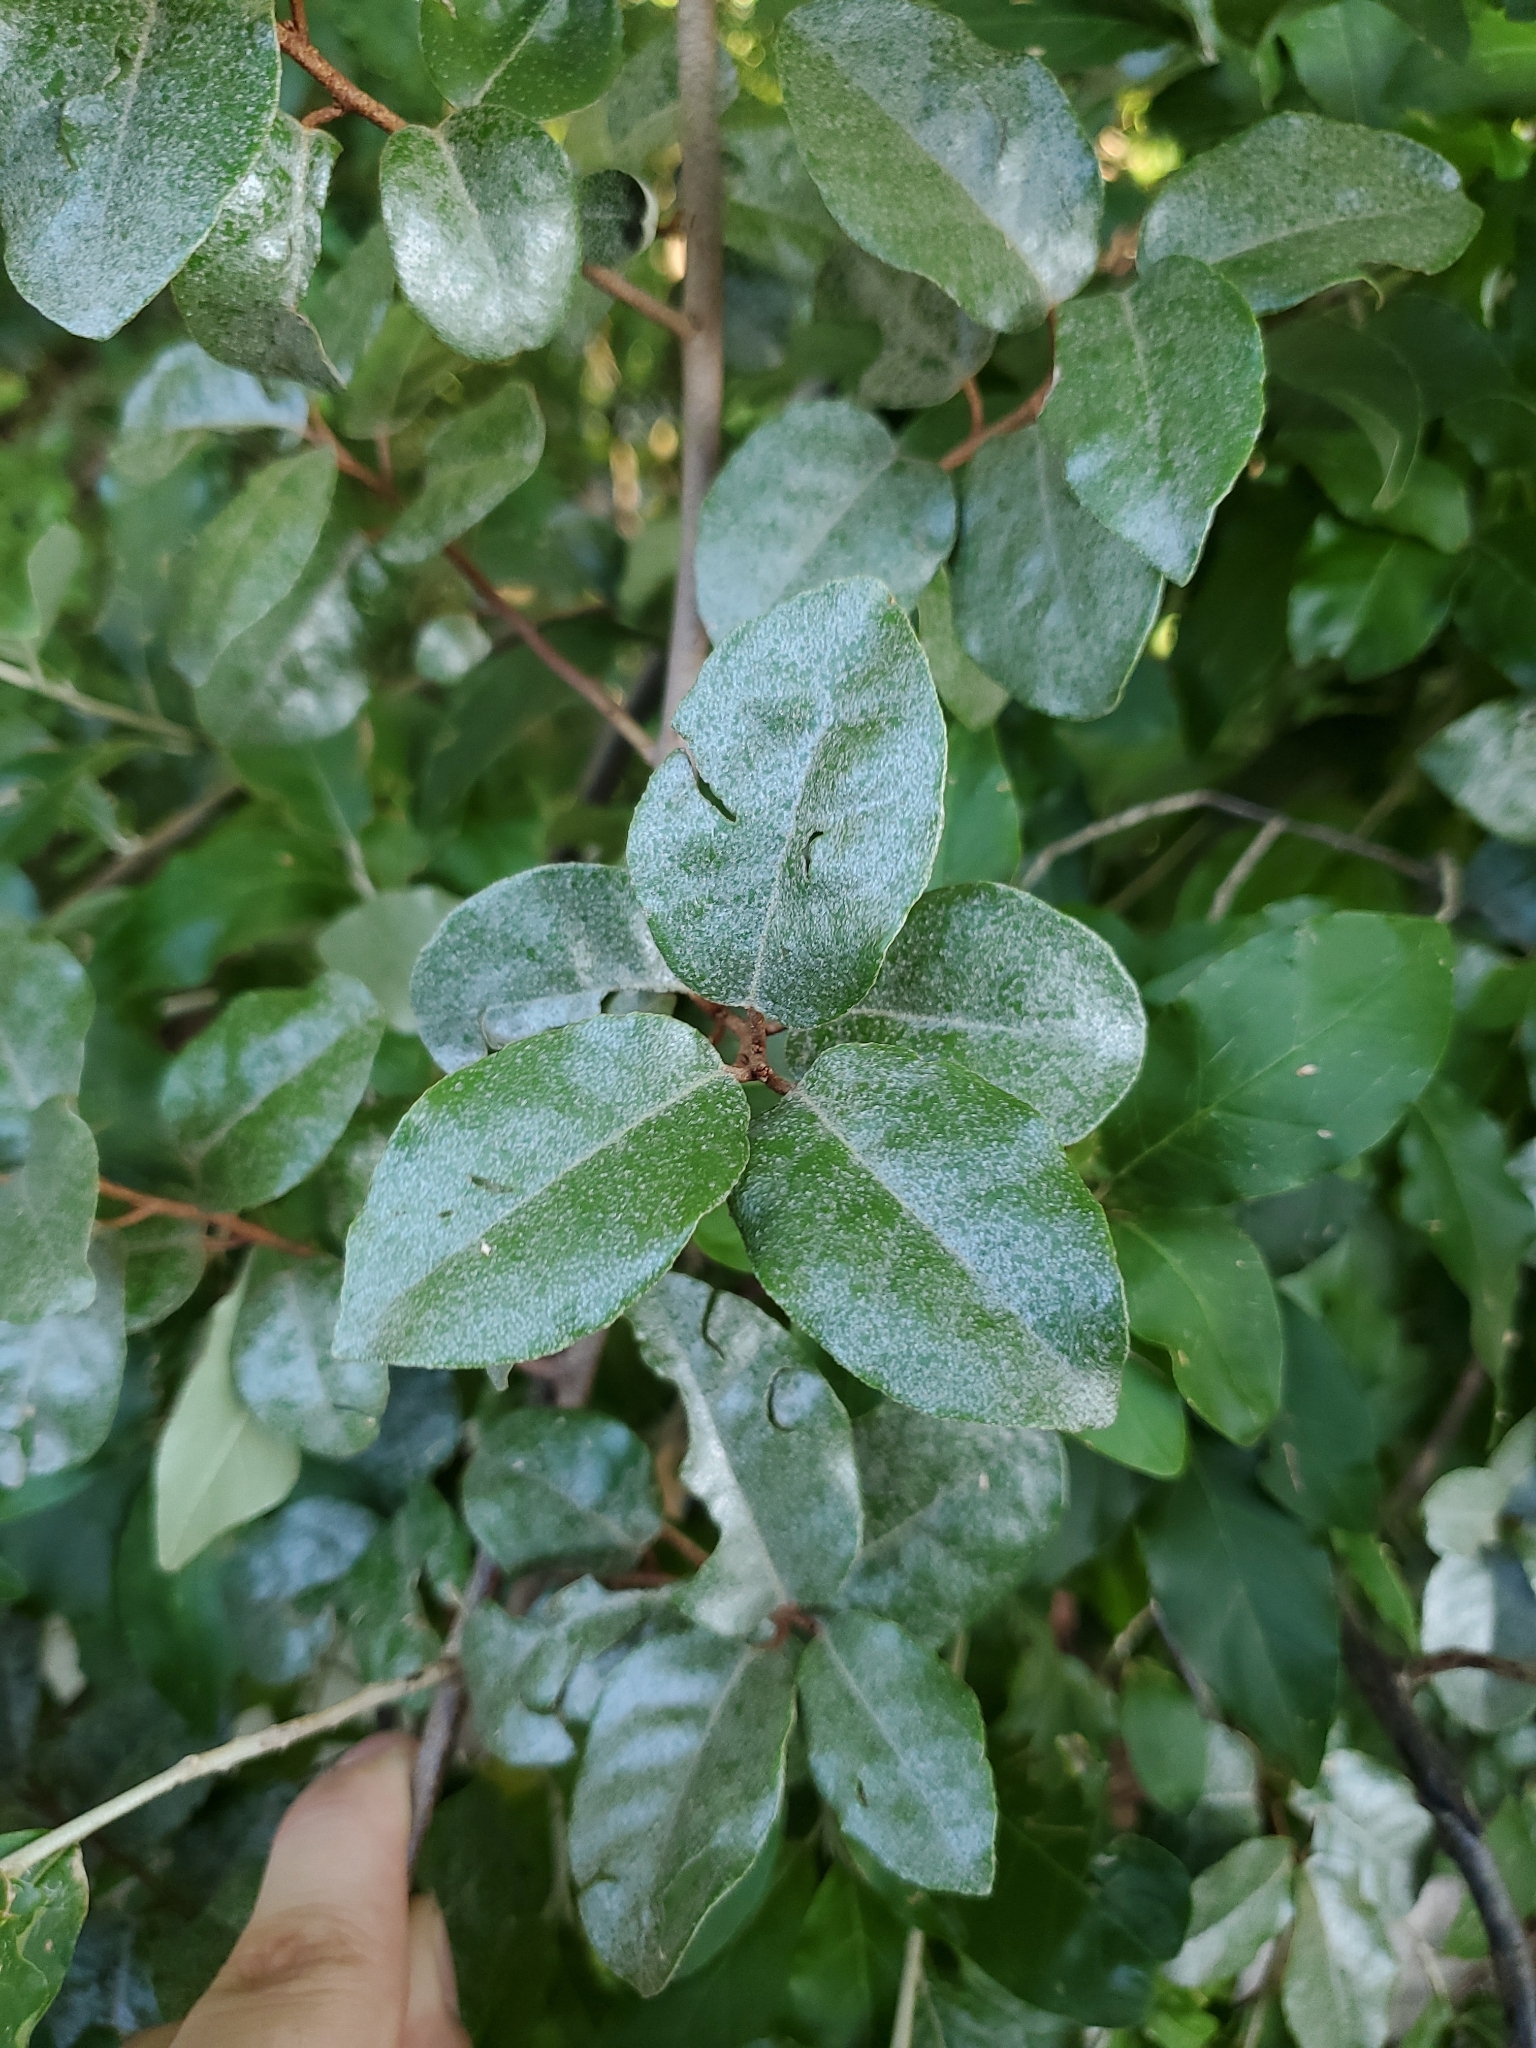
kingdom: Plantae
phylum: Tracheophyta
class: Magnoliopsida
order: Rosales
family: Elaeagnaceae
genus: Elaeagnus
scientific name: Elaeagnus pungens
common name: Spiny oleaster
